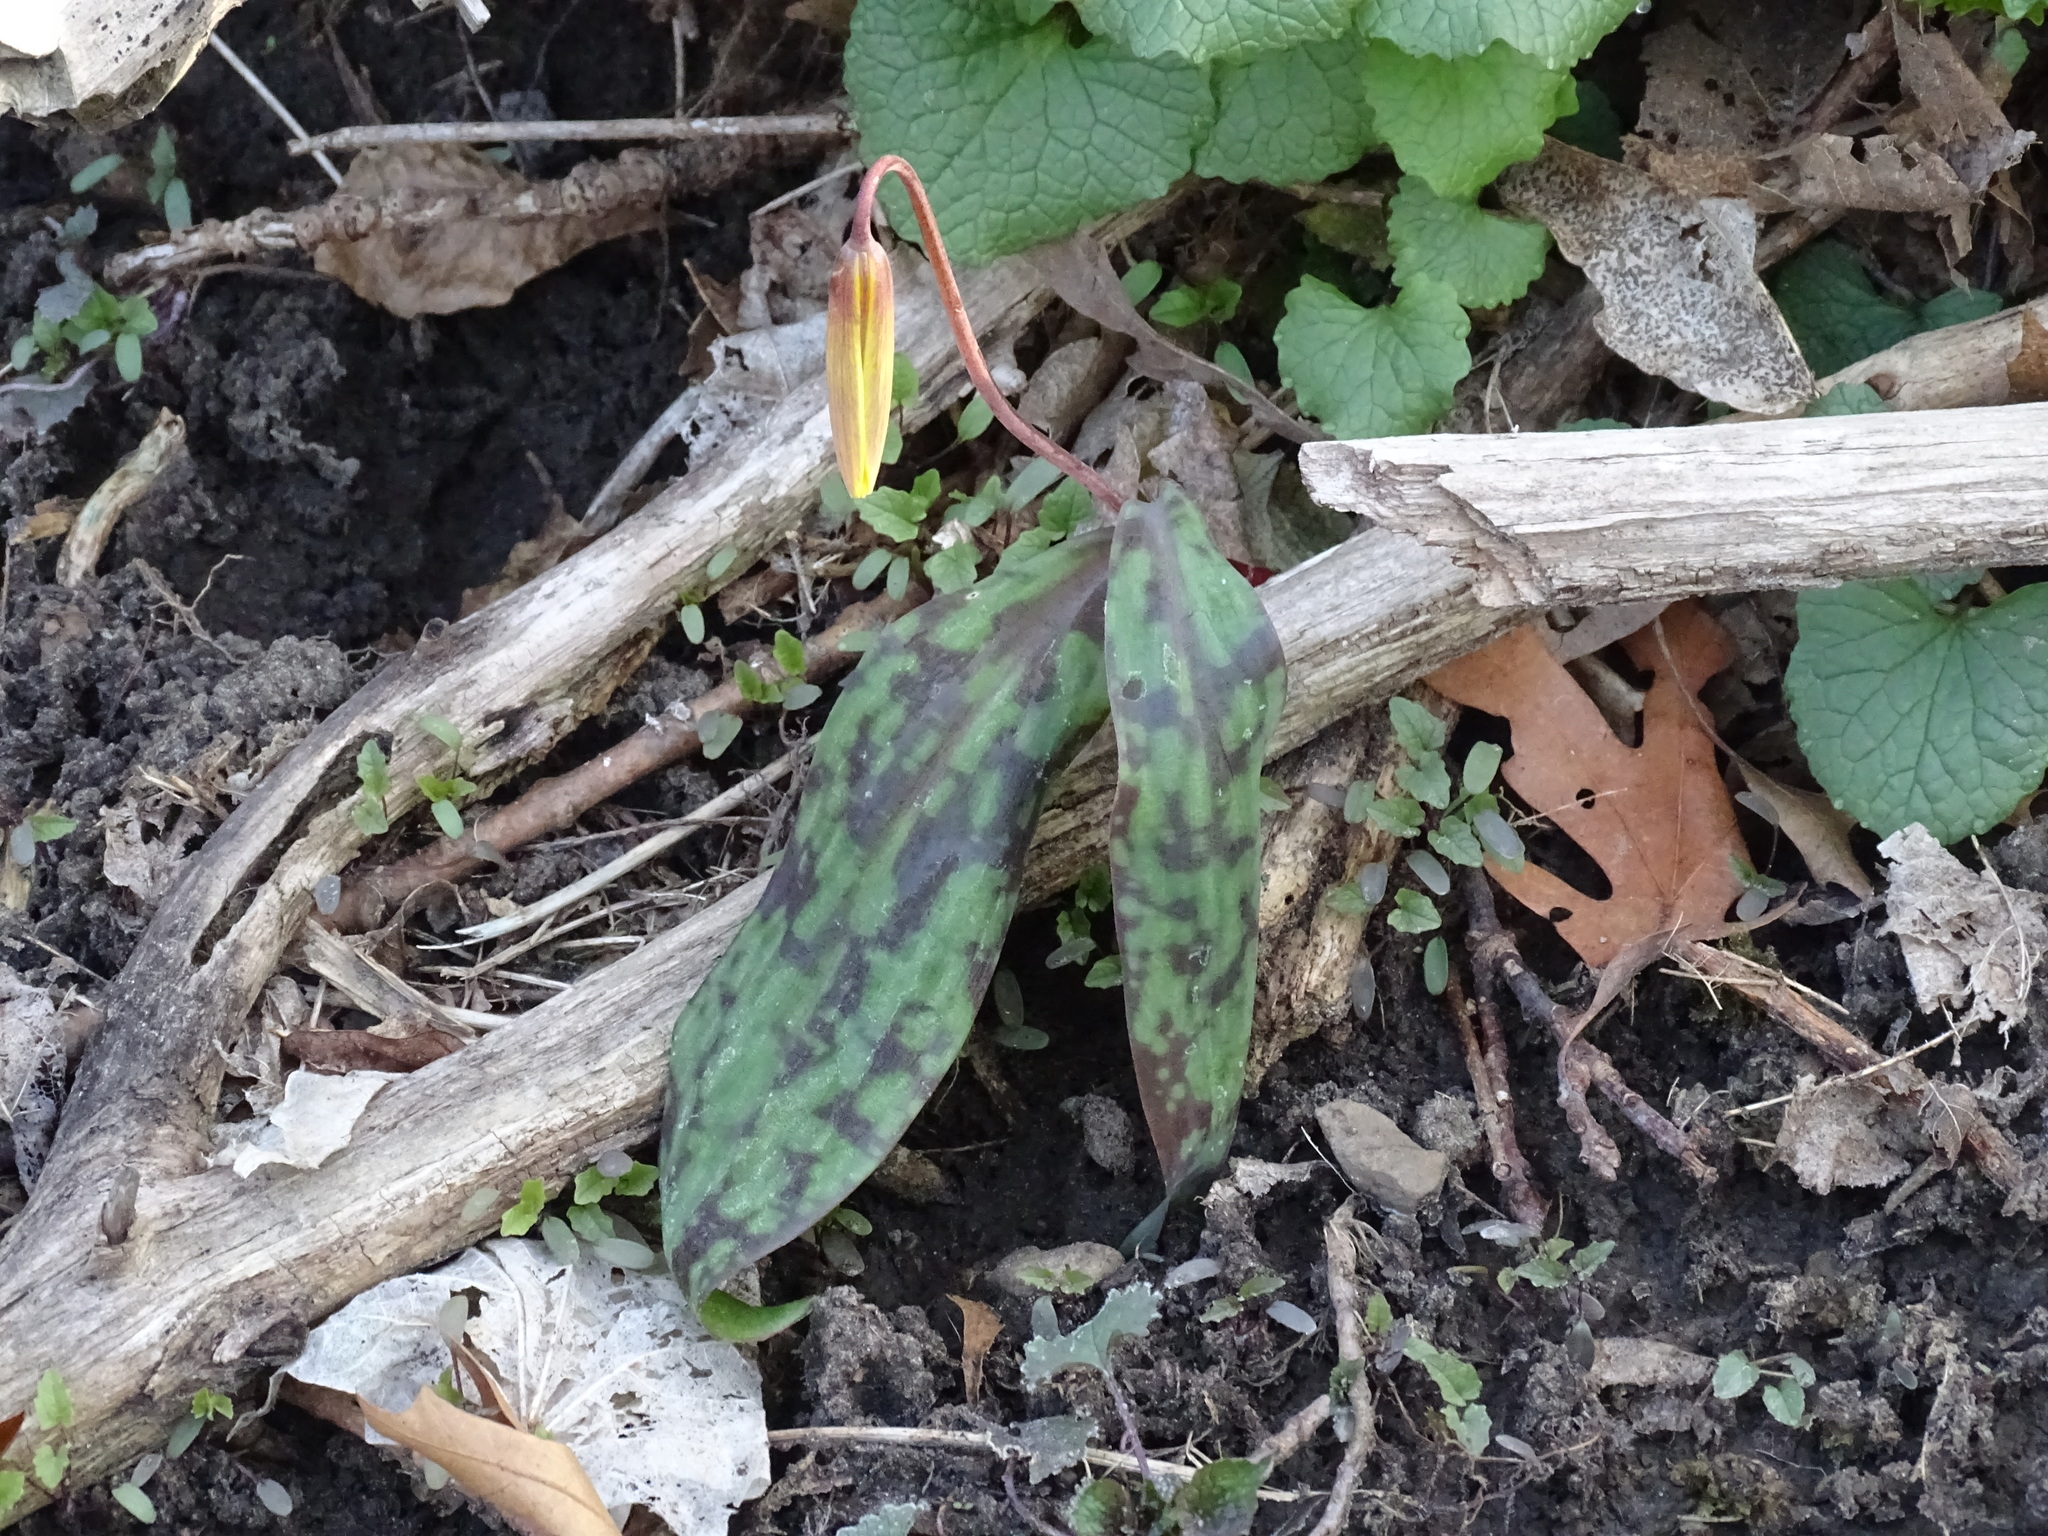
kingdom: Plantae
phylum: Tracheophyta
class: Liliopsida
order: Liliales
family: Liliaceae
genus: Erythronium
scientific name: Erythronium americanum
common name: Yellow adder's-tongue
